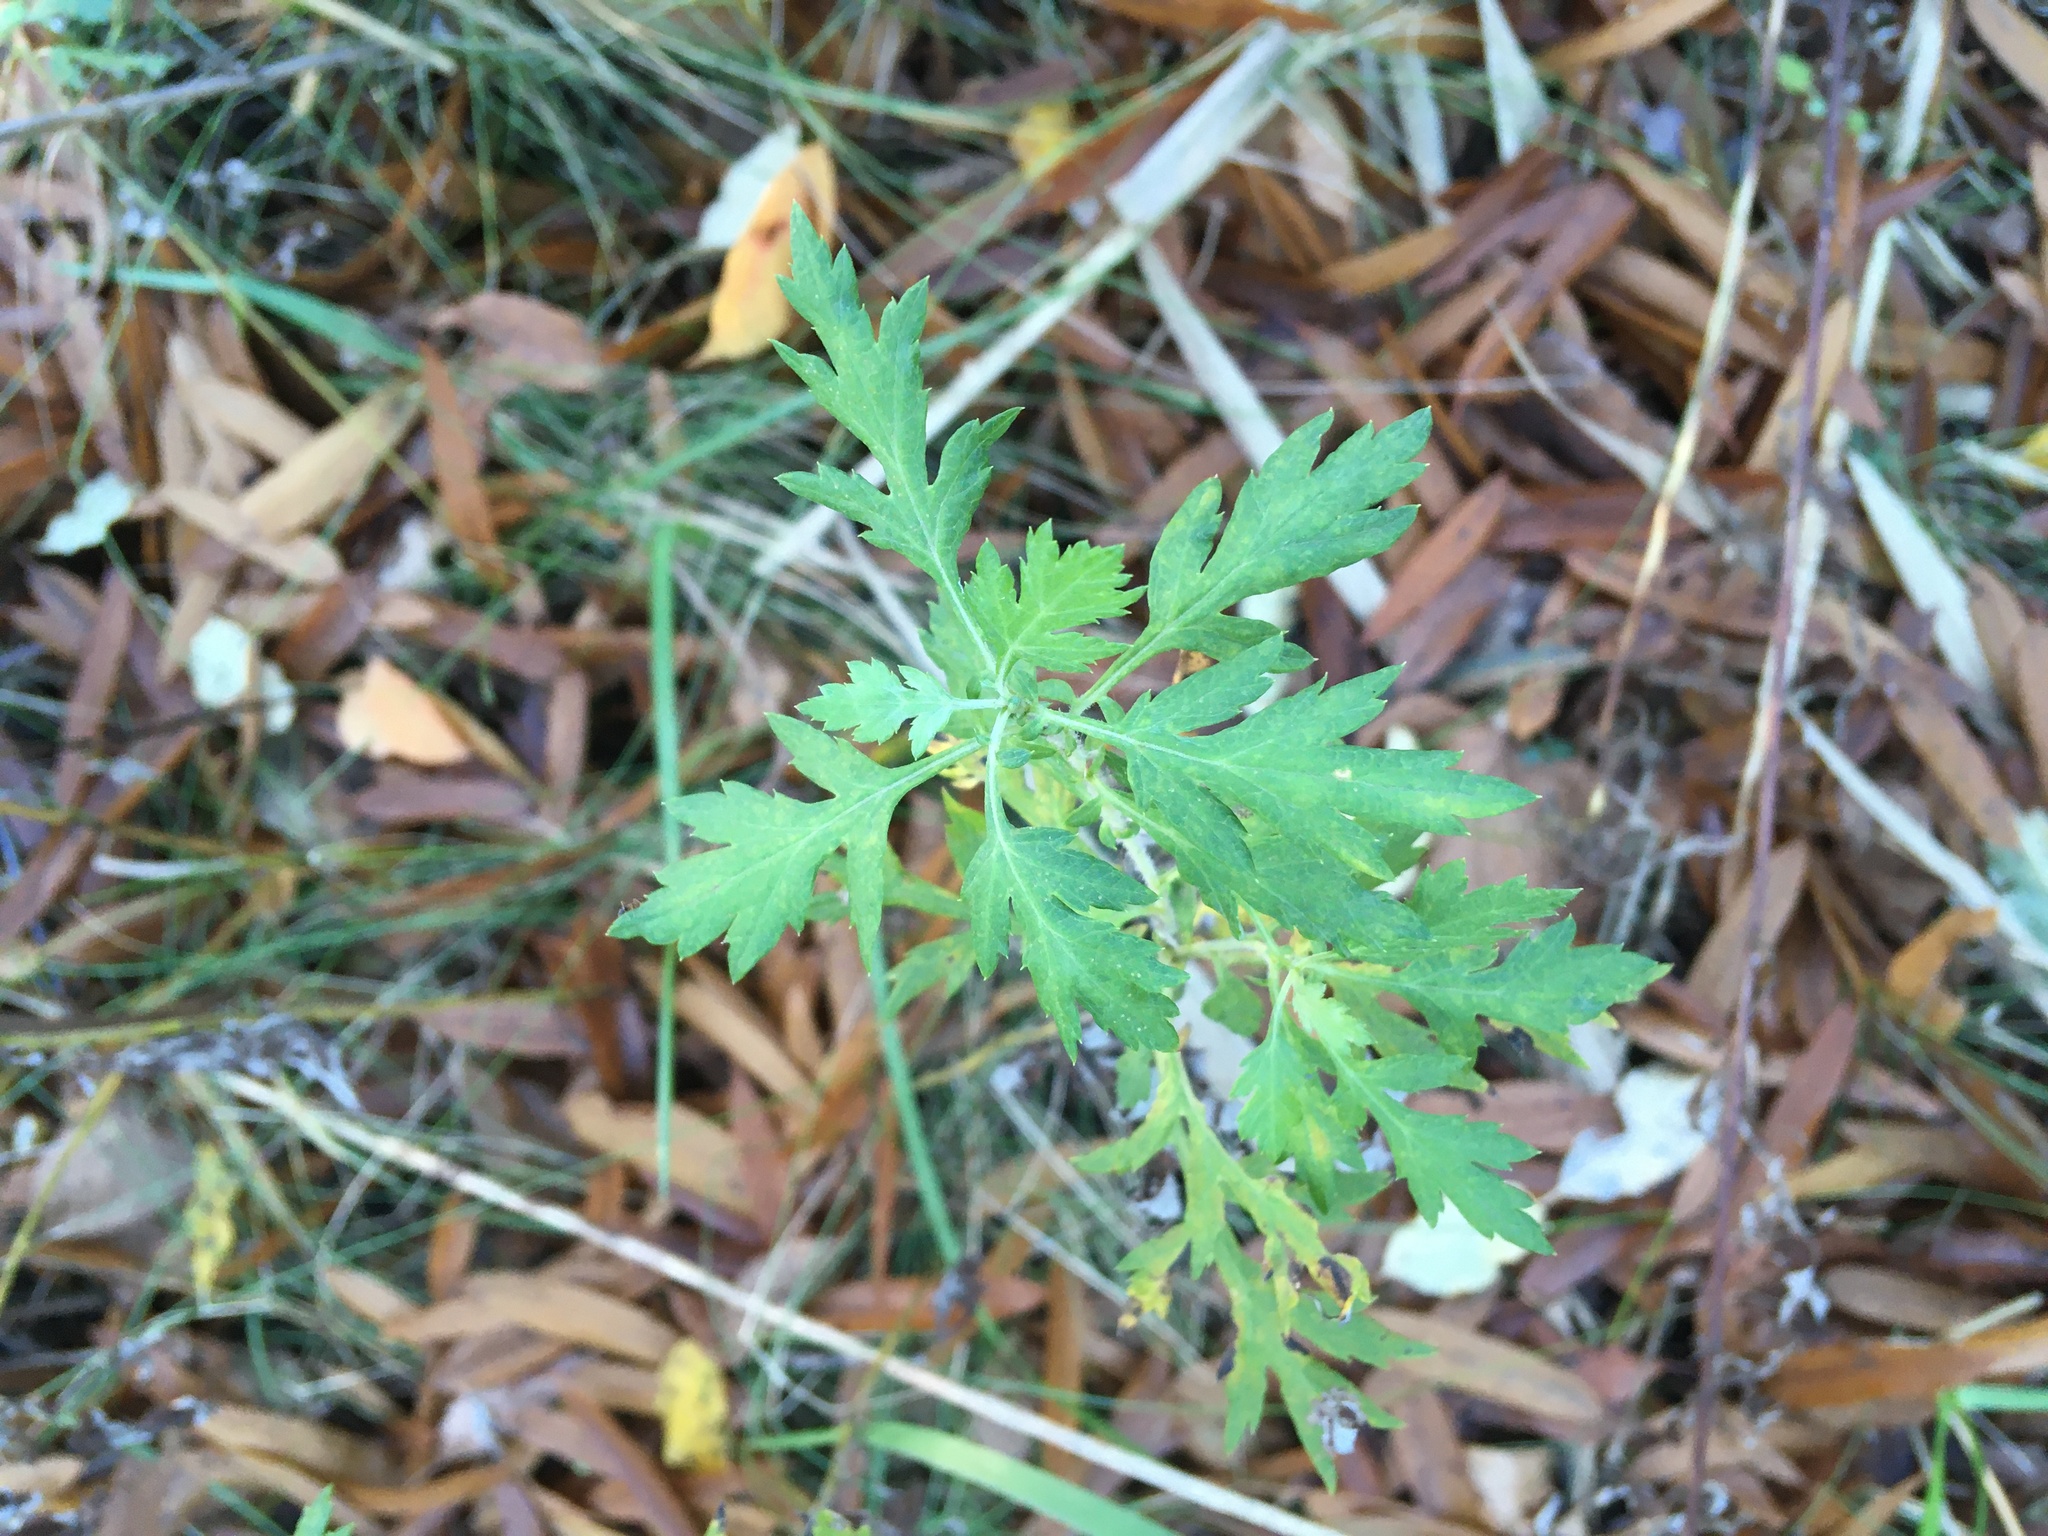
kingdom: Plantae
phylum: Tracheophyta
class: Magnoliopsida
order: Asterales
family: Asteraceae
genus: Artemisia
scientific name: Artemisia vulgaris
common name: Mugwort
